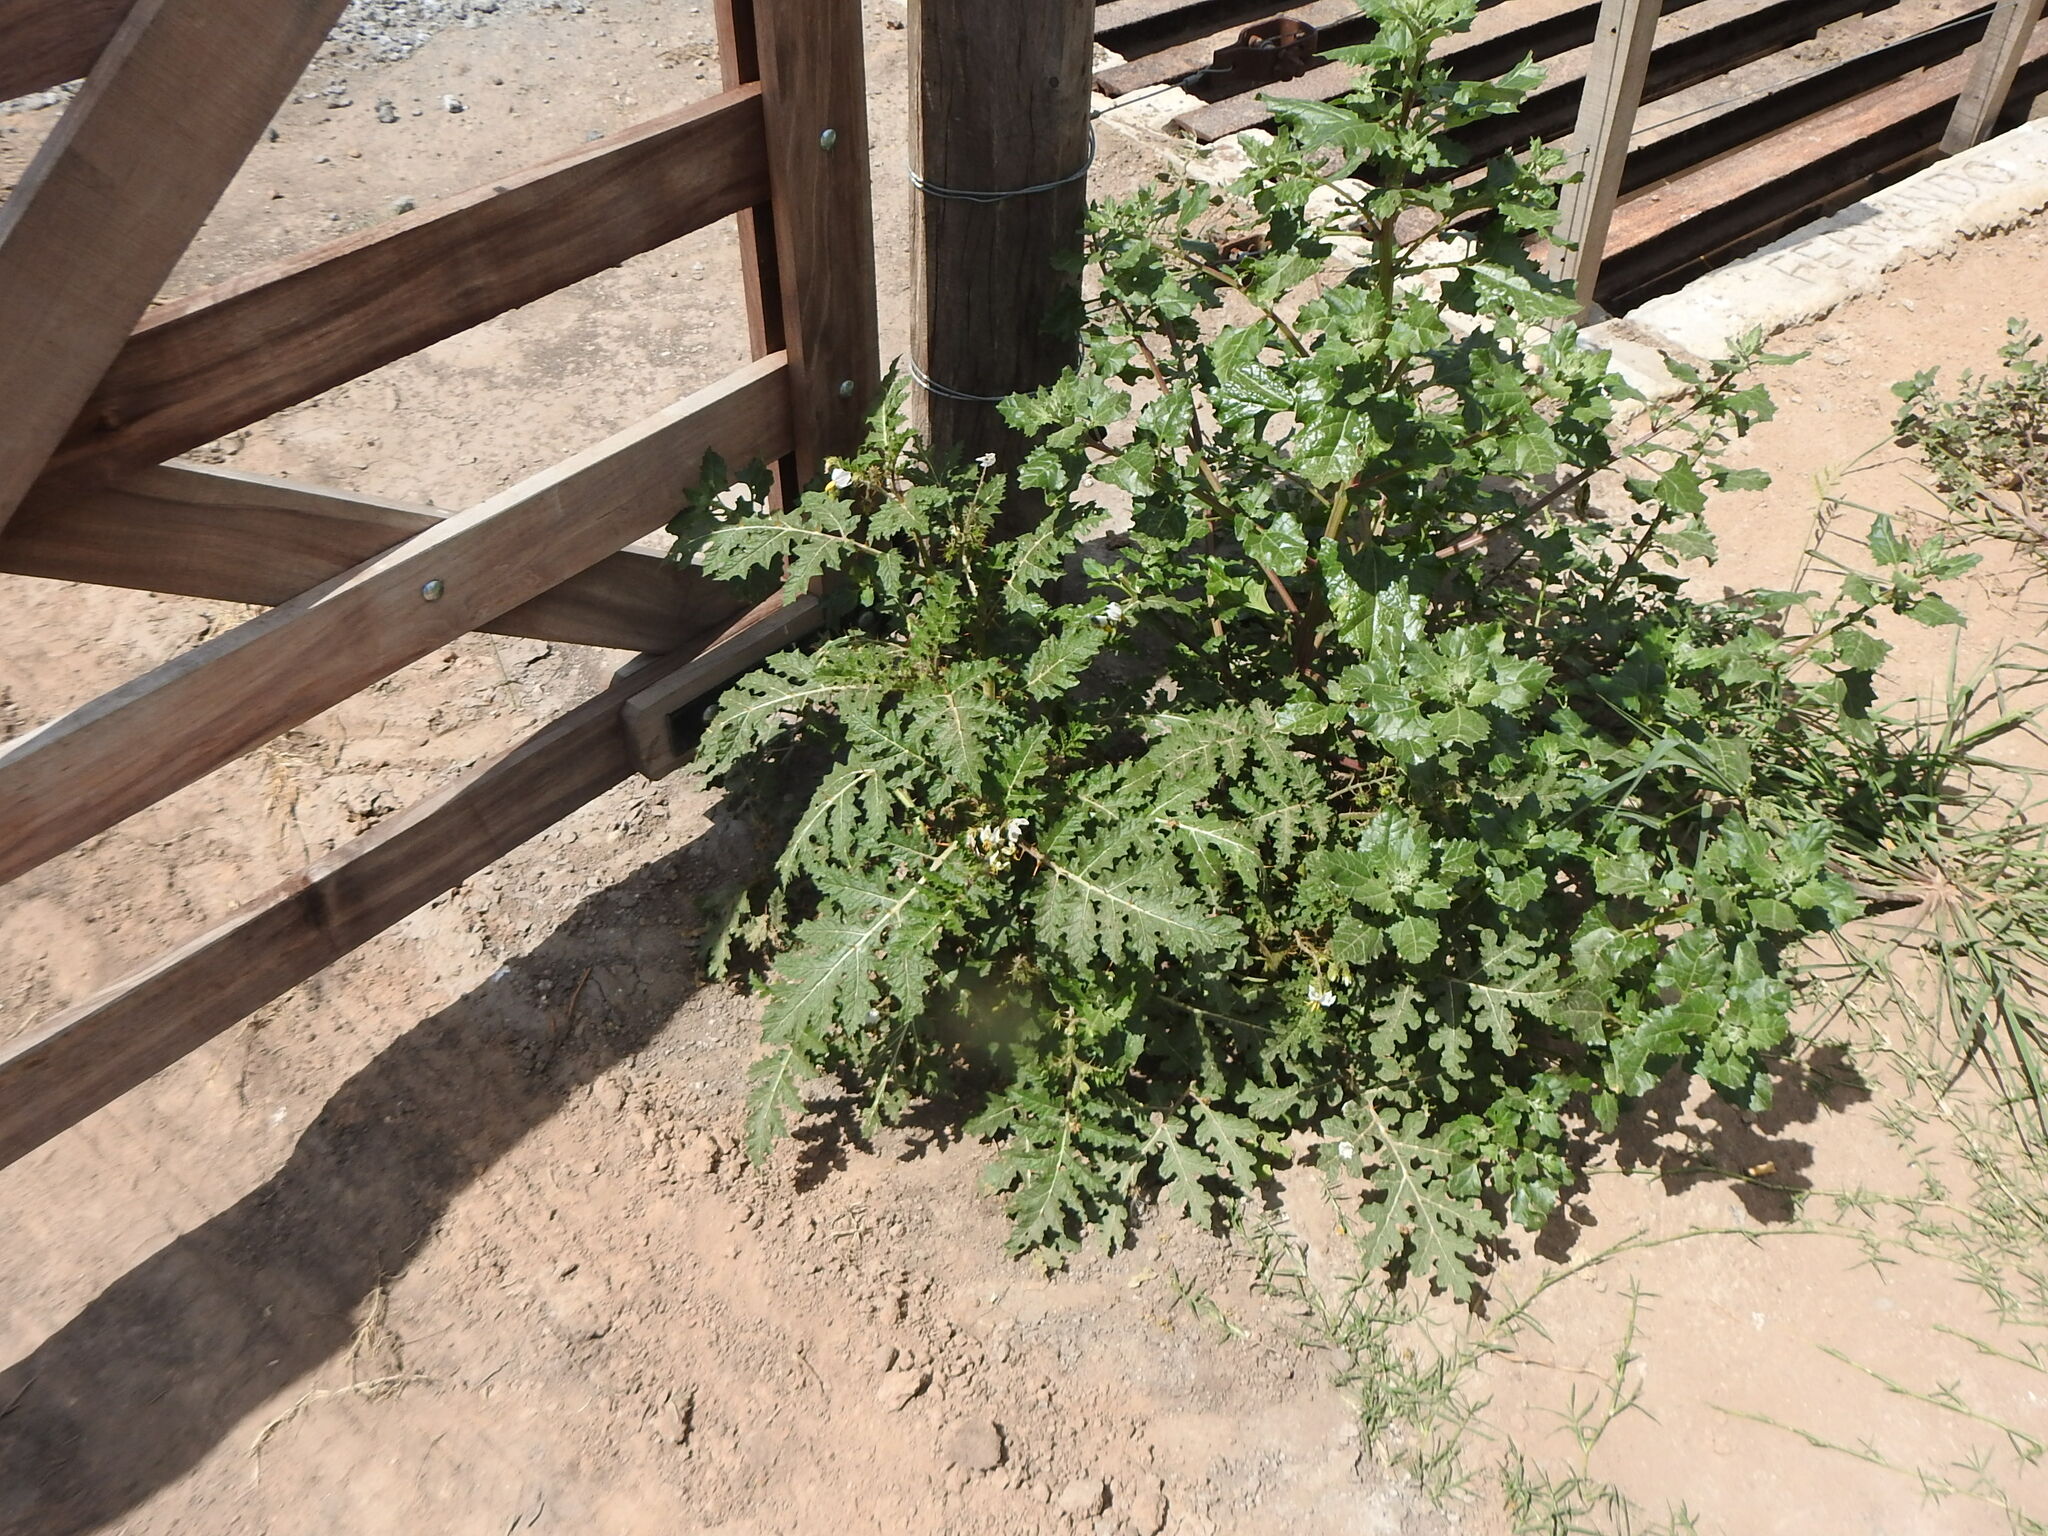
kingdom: Plantae
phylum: Tracheophyta
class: Magnoliopsida
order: Solanales
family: Solanaceae
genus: Solanum
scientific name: Solanum sisymbriifolium
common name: Red buffalo-bur
